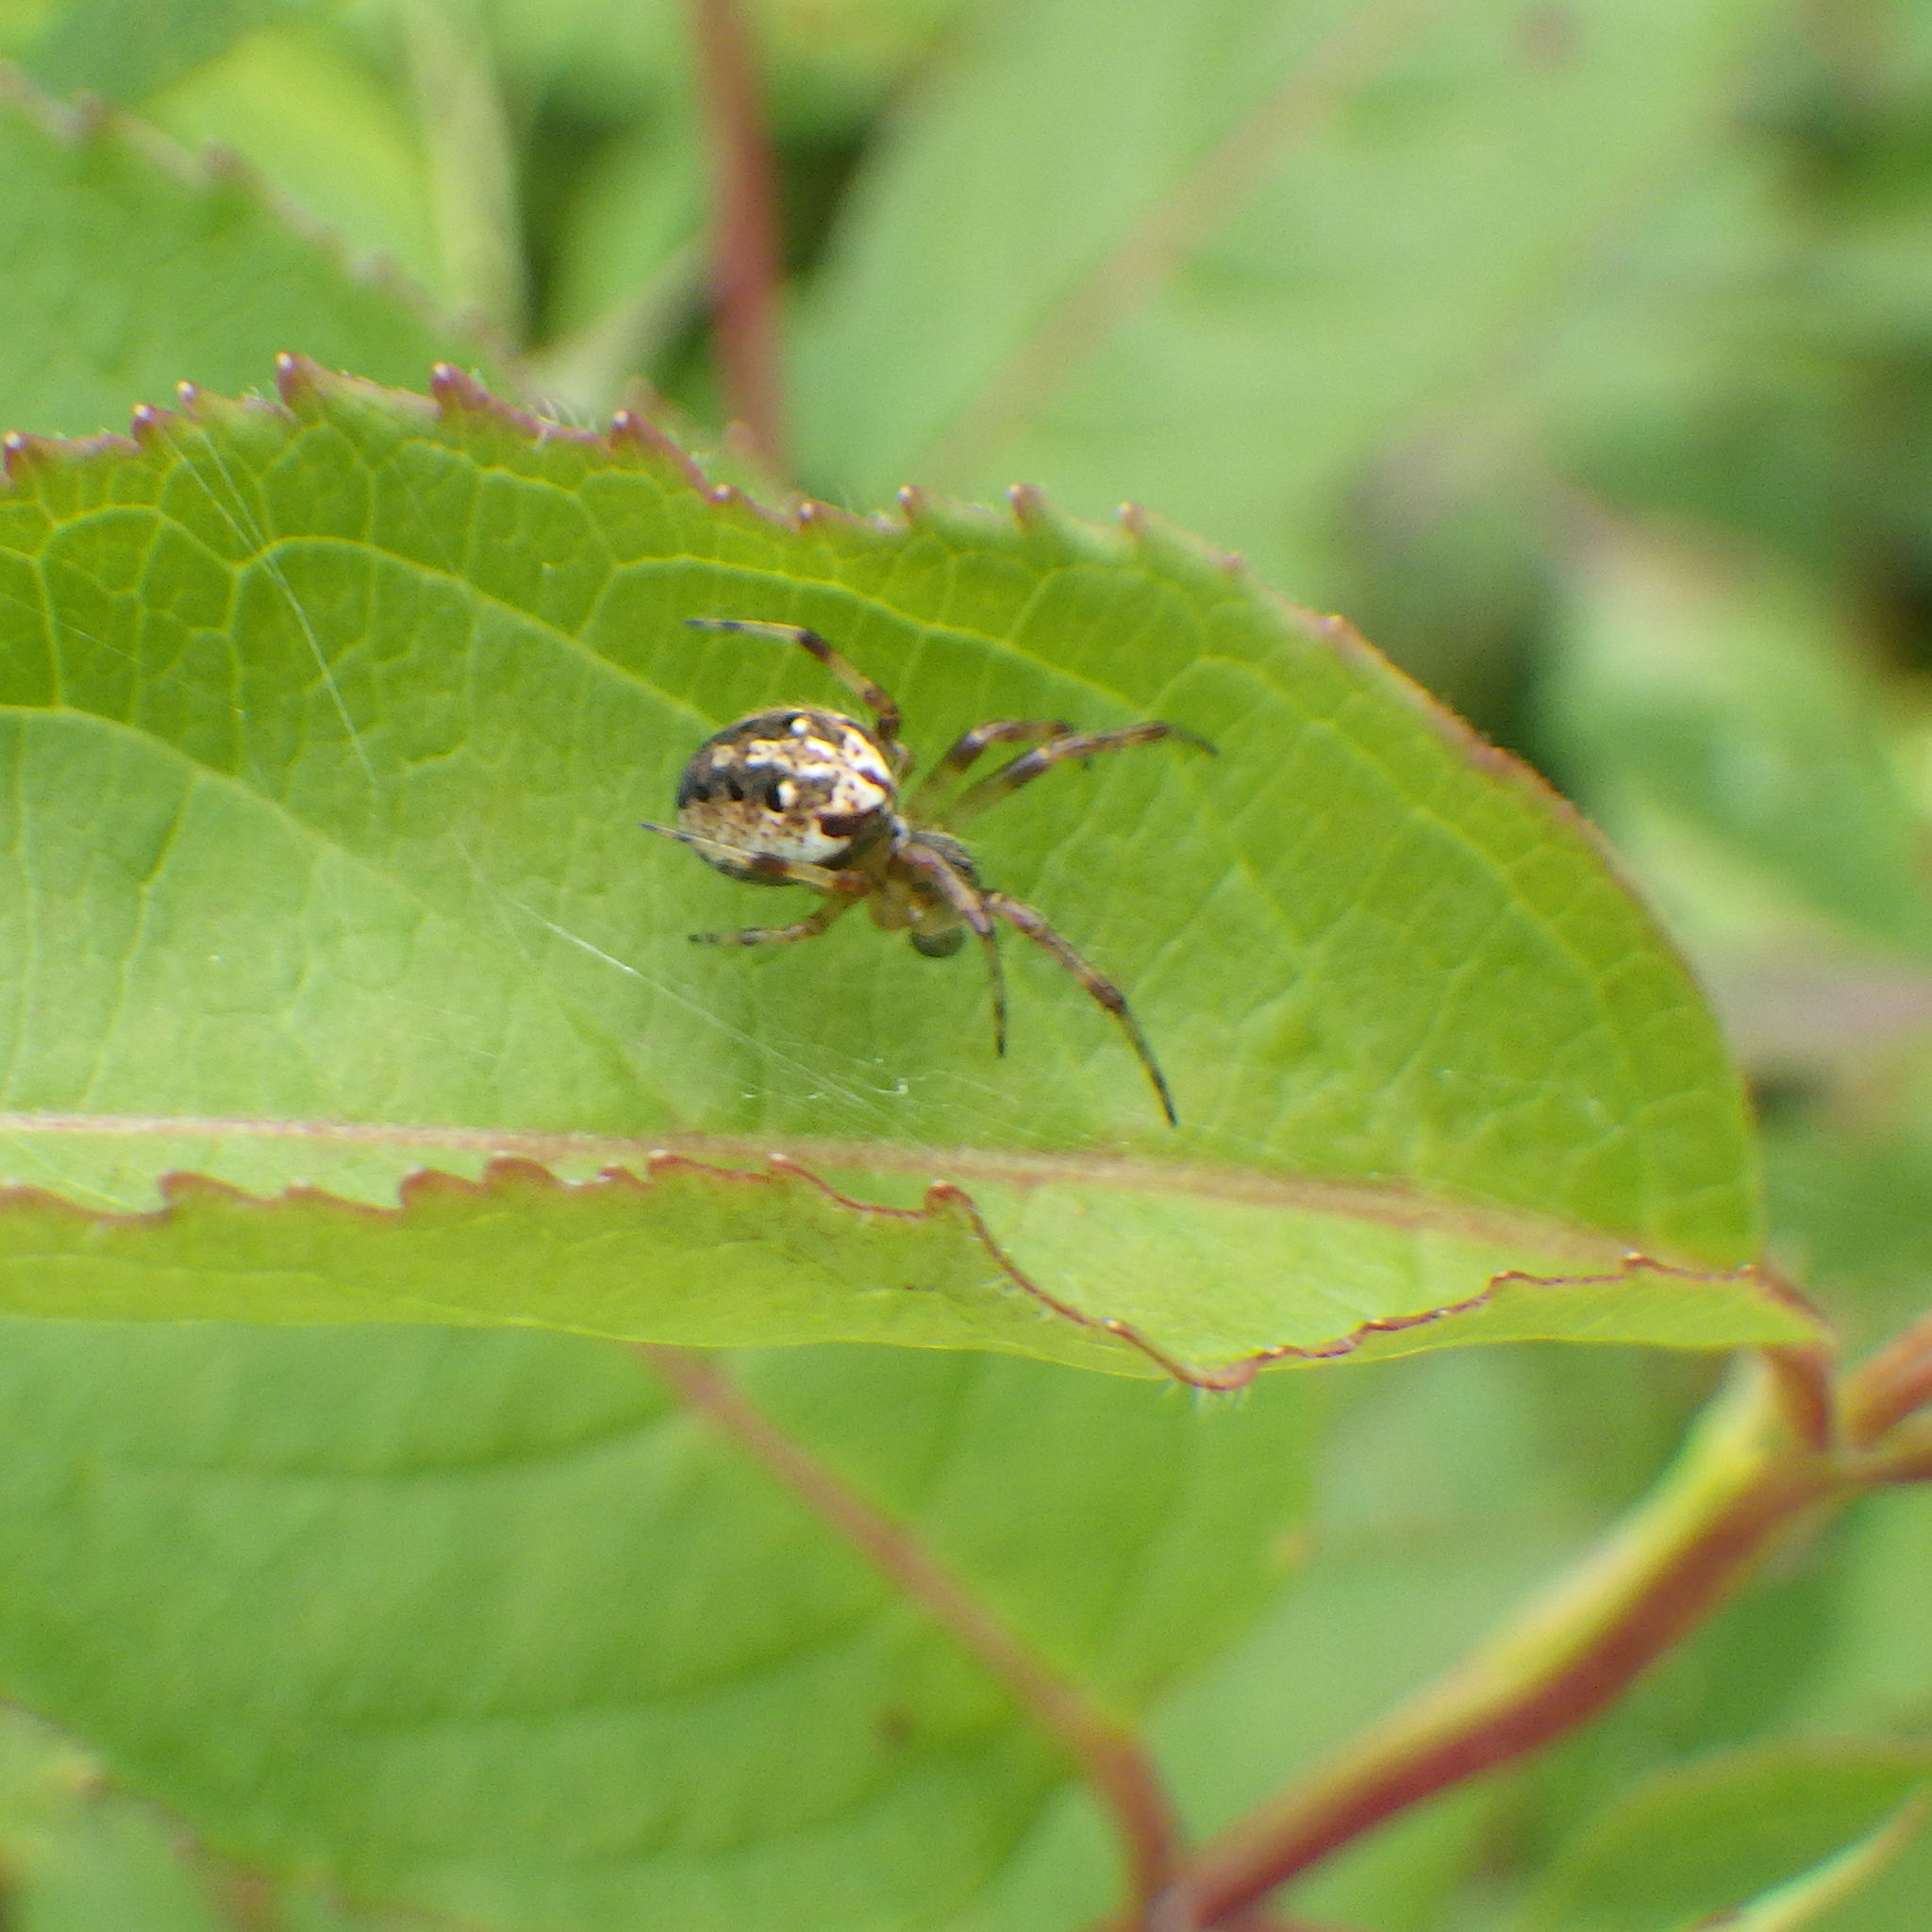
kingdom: Animalia
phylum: Arthropoda
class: Arachnida
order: Araneae
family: Araneidae
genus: Neoscona
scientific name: Neoscona arabesca
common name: Orb weavers
